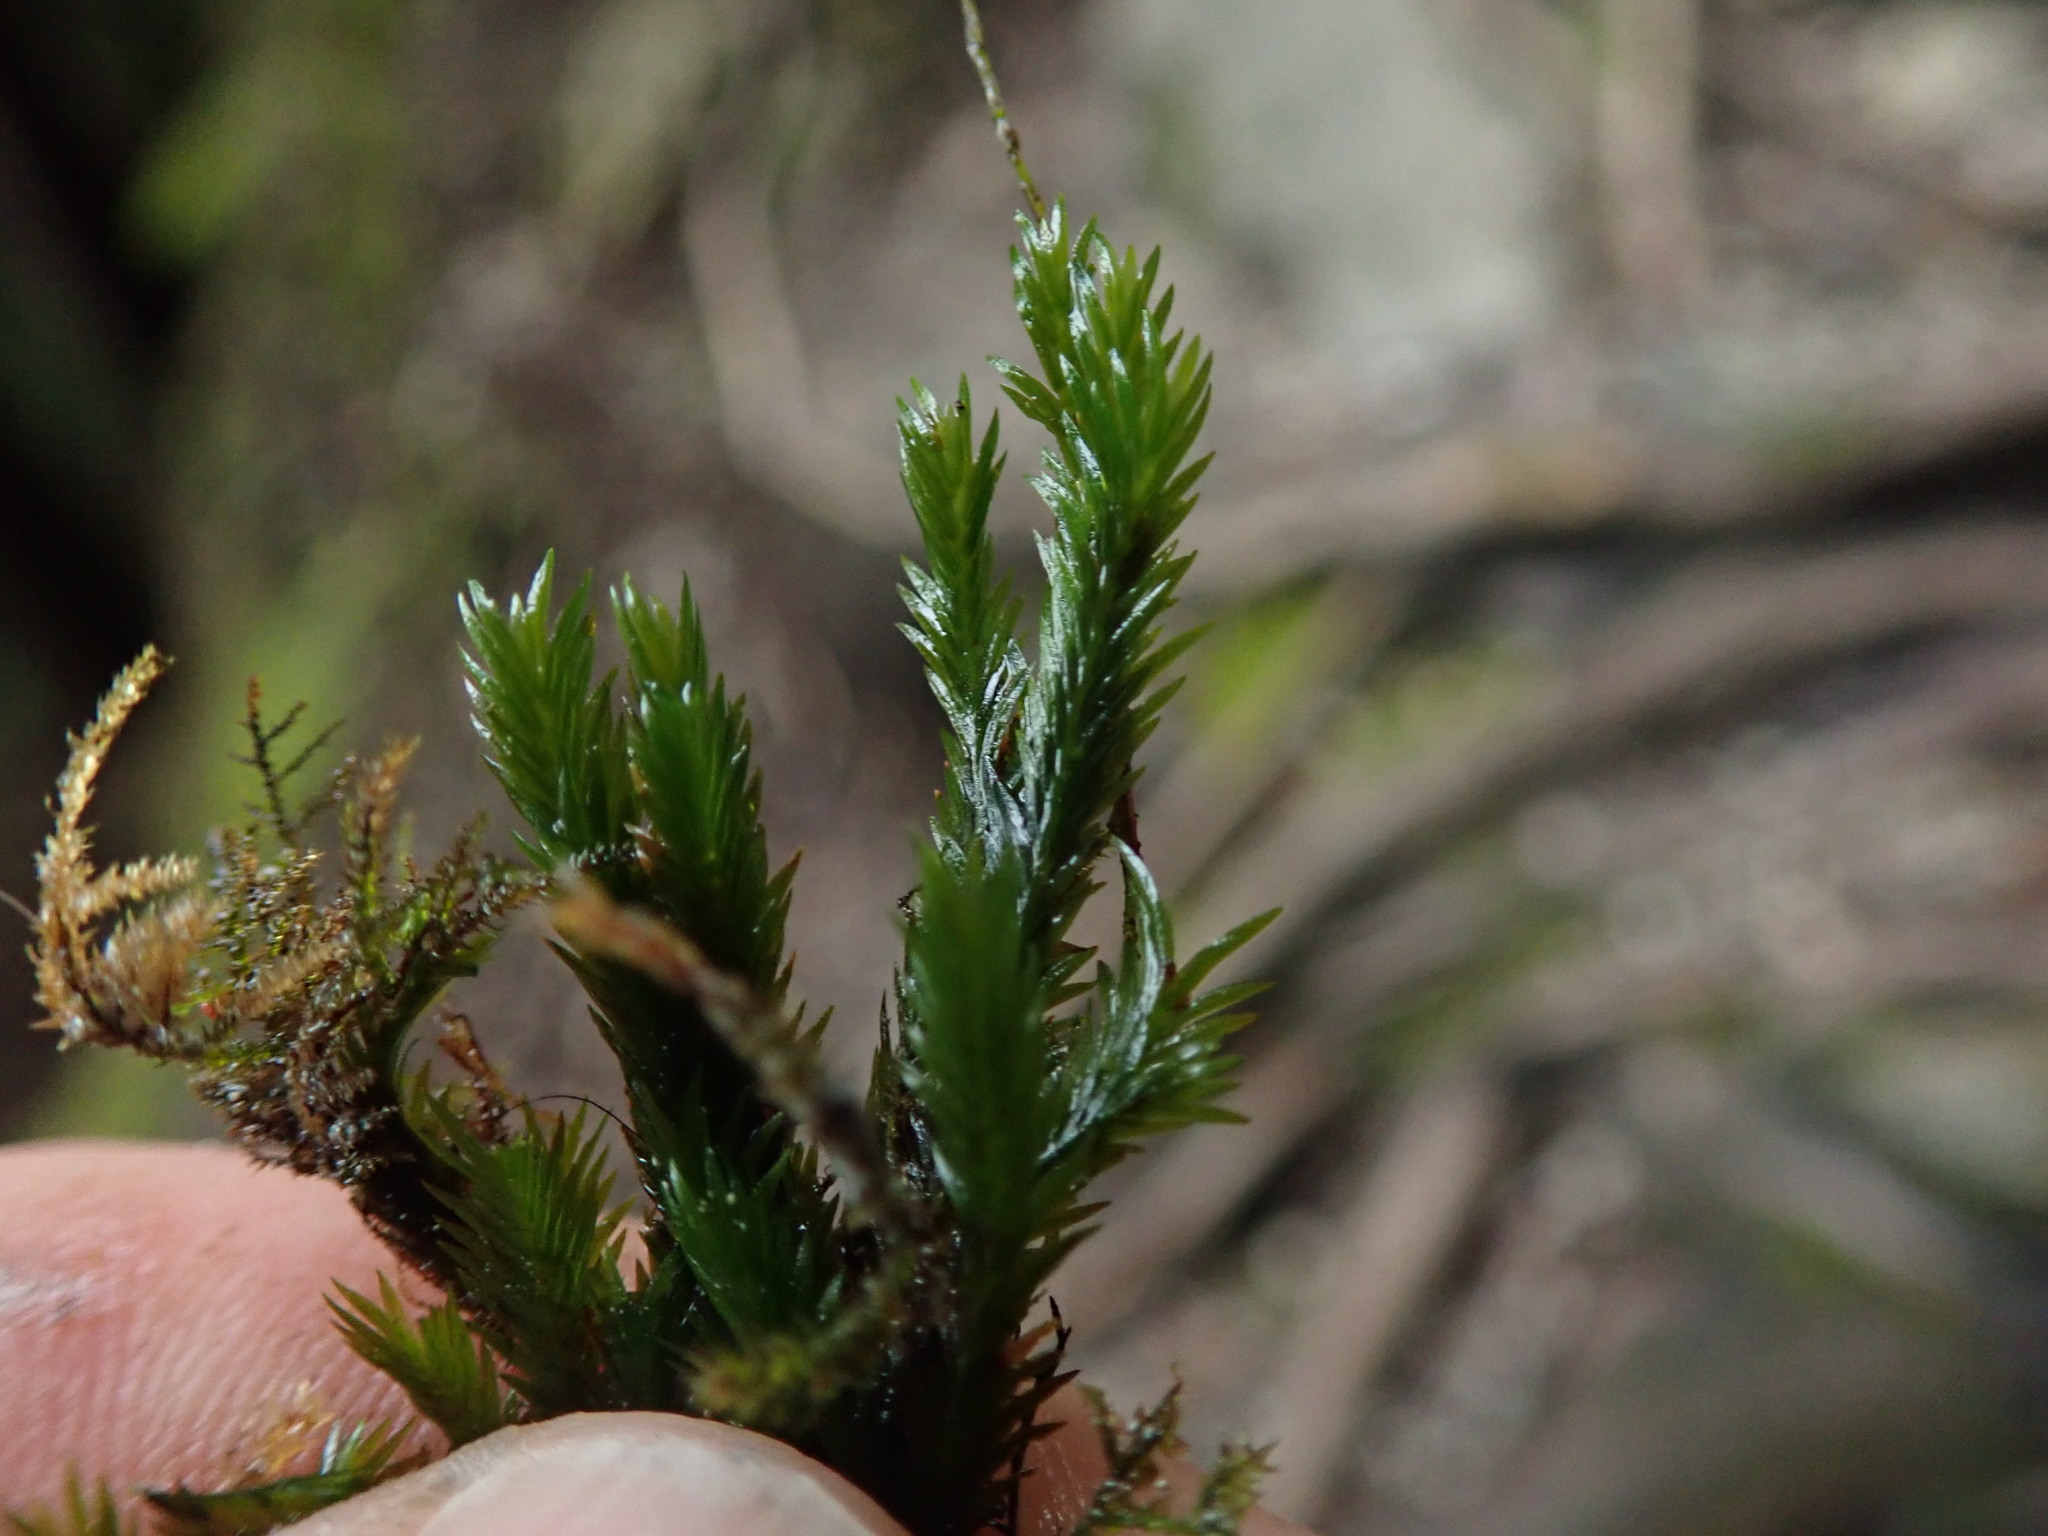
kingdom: Plantae
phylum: Bryophyta
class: Bryopsida
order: Dicranales
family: Fissidentaceae
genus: Fissidens
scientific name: Fissidens grandifrons
